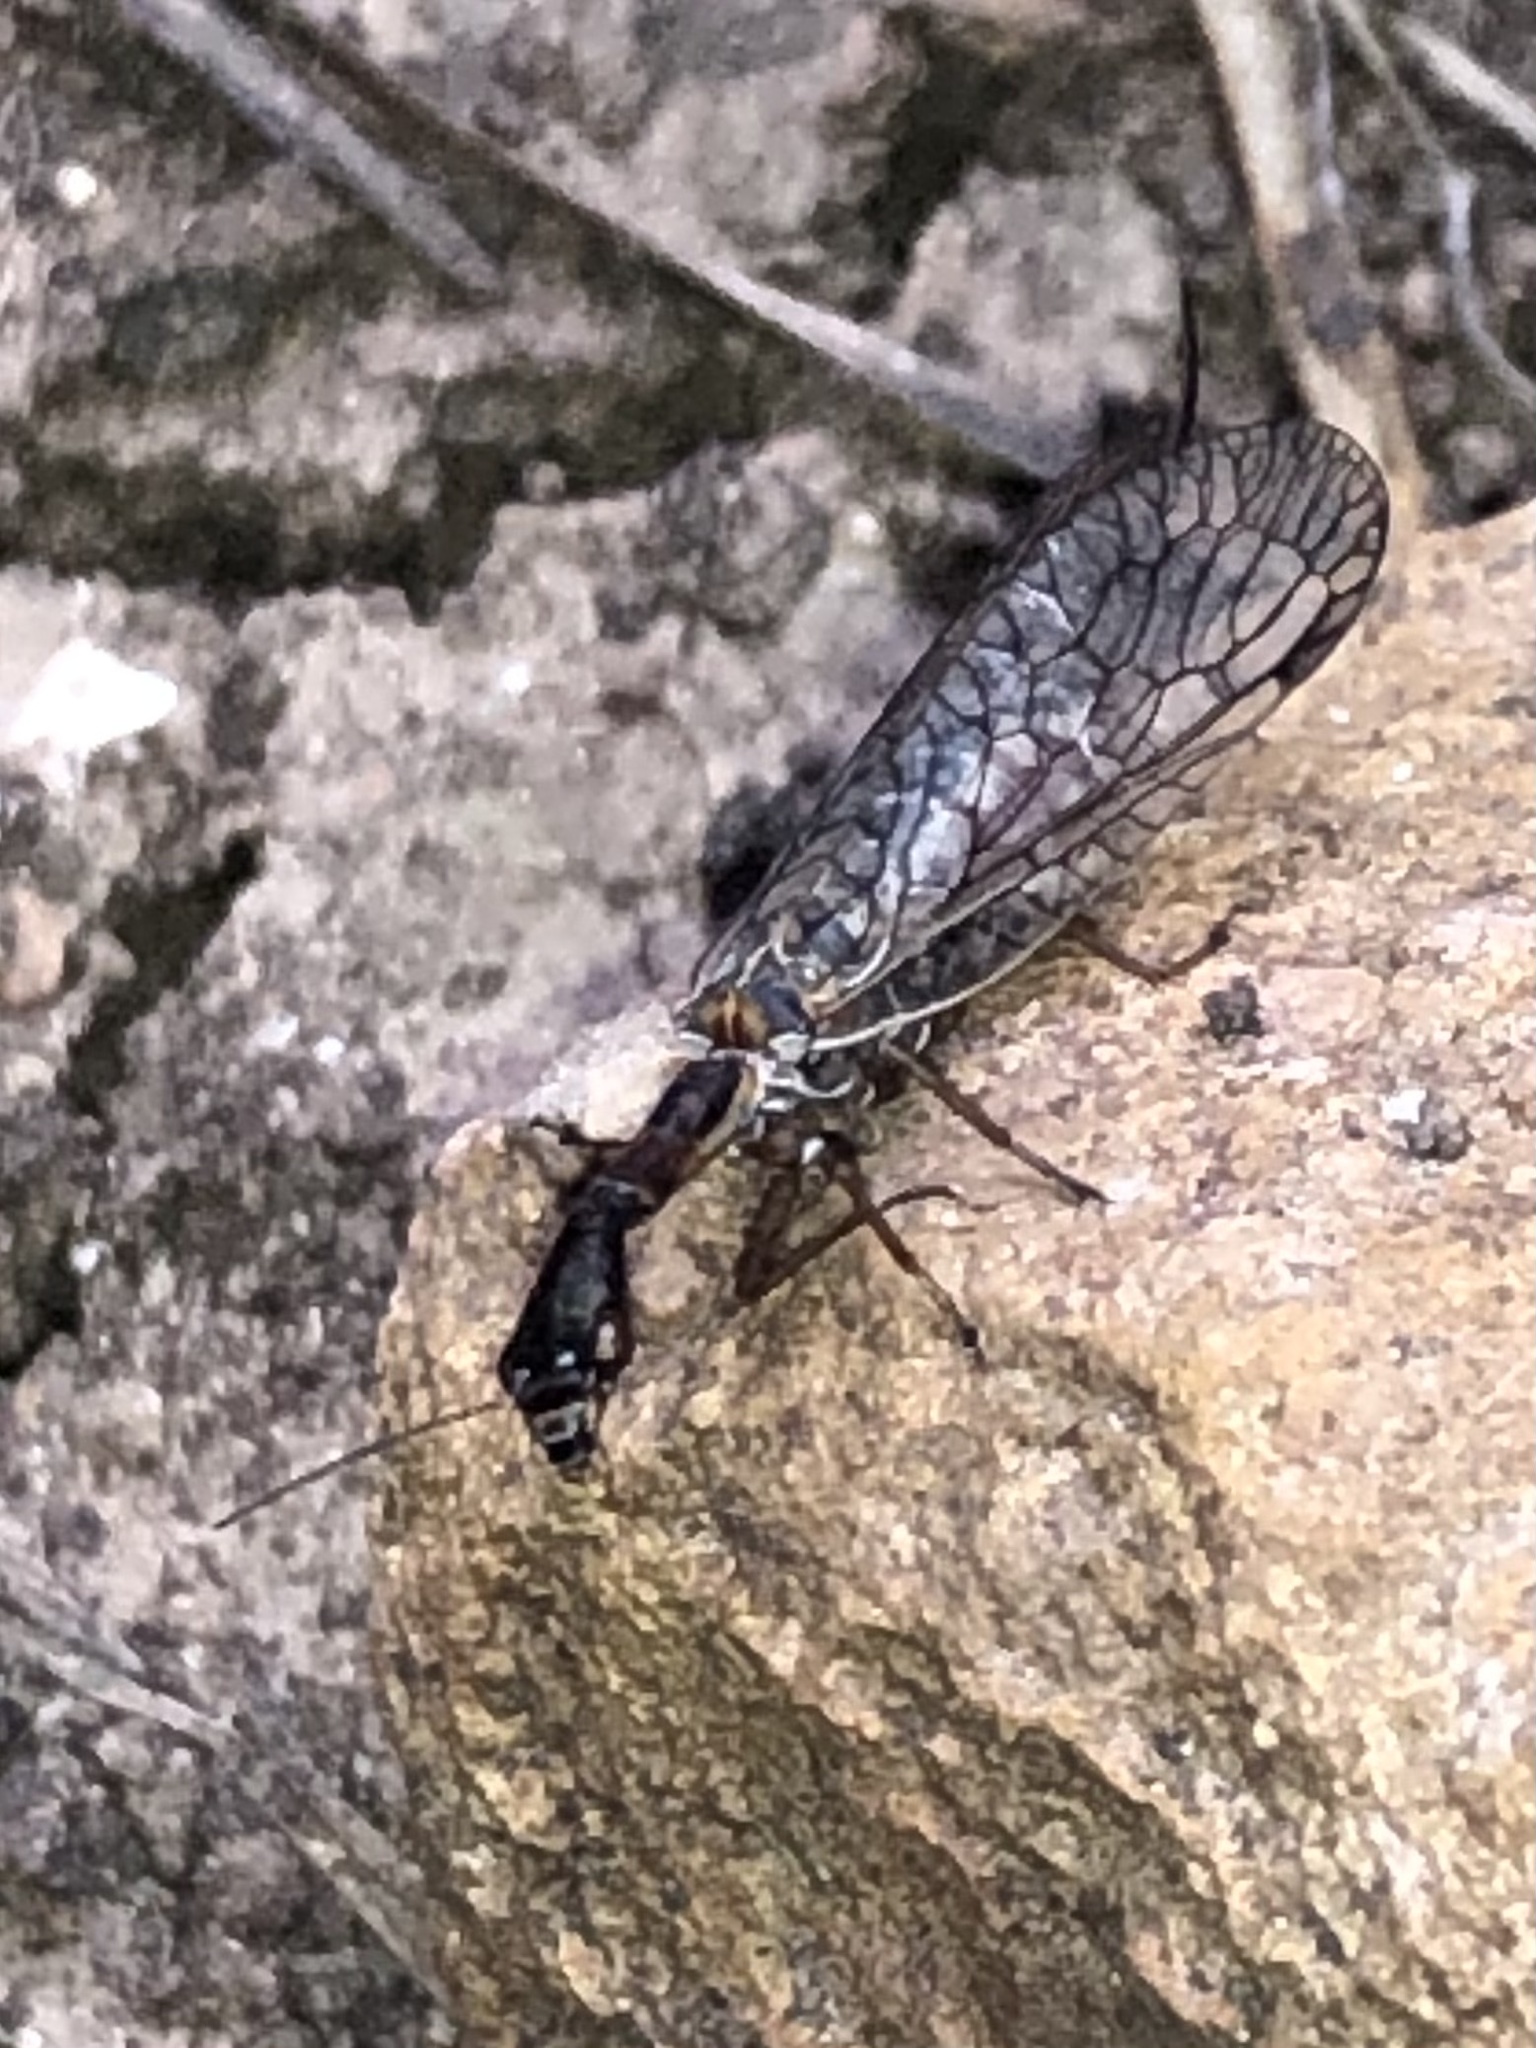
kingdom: Animalia
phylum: Arthropoda
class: Insecta
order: Raphidioptera
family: Raphidiidae
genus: Agulla
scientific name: Agulla bicolor
